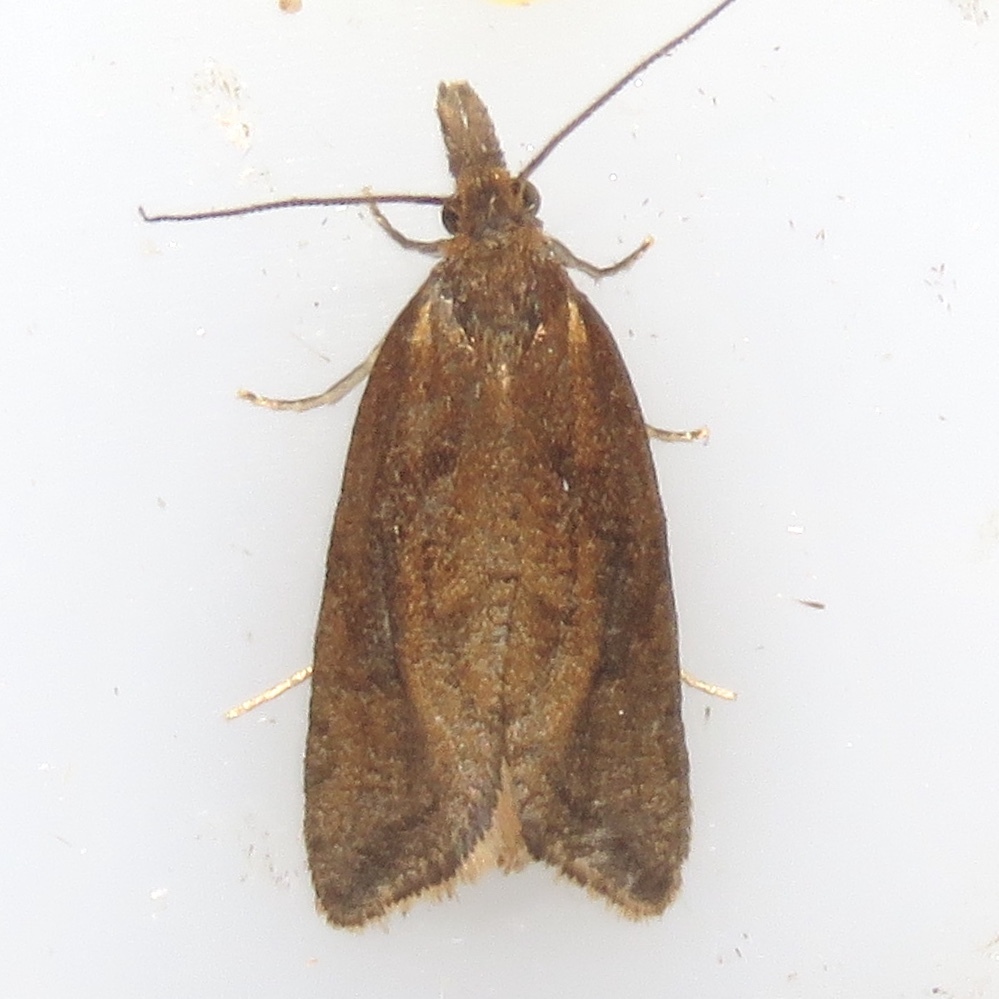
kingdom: Animalia
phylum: Arthropoda
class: Insecta
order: Lepidoptera
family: Tortricidae
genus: Aethes
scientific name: Aethes biscana
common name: Reddish aethes
